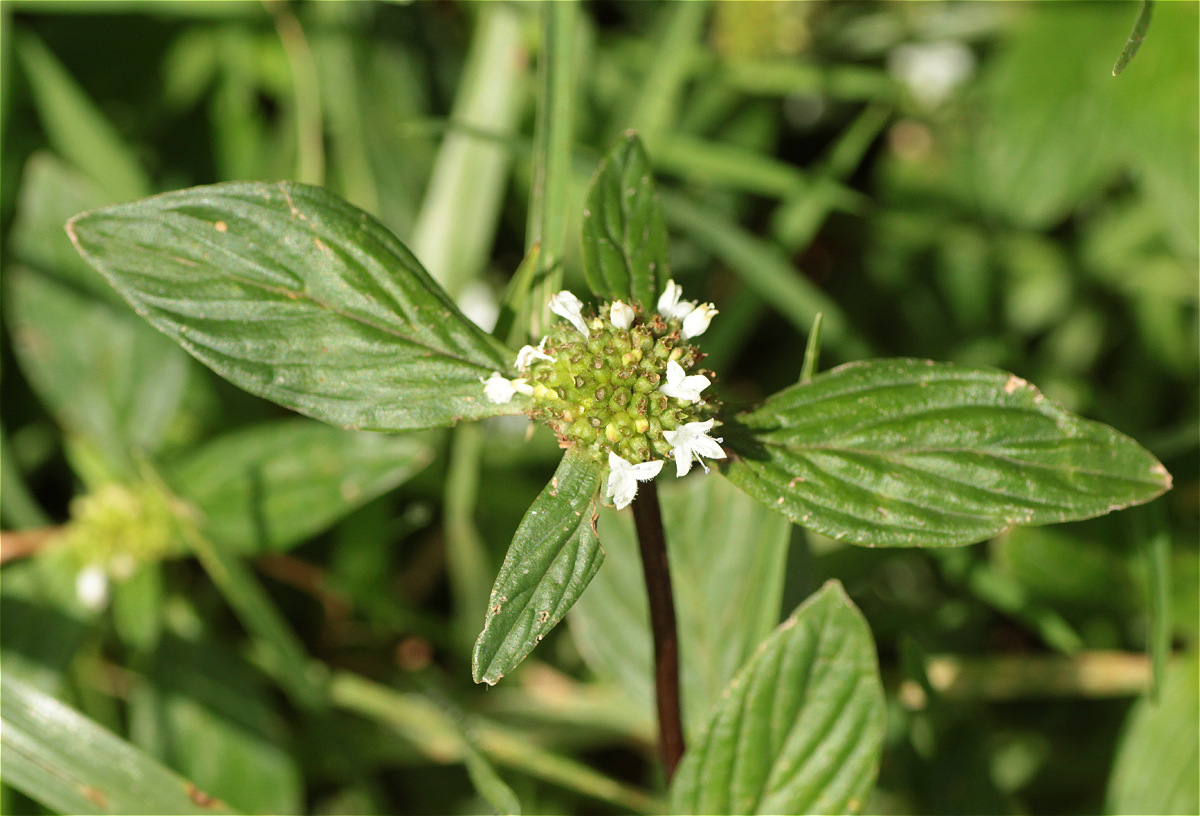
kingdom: Plantae
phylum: Tracheophyta
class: Magnoliopsida
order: Gentianales
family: Rubiaceae
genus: Spermacoce
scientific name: Spermacoce remota
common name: Woodland false buttonweed
